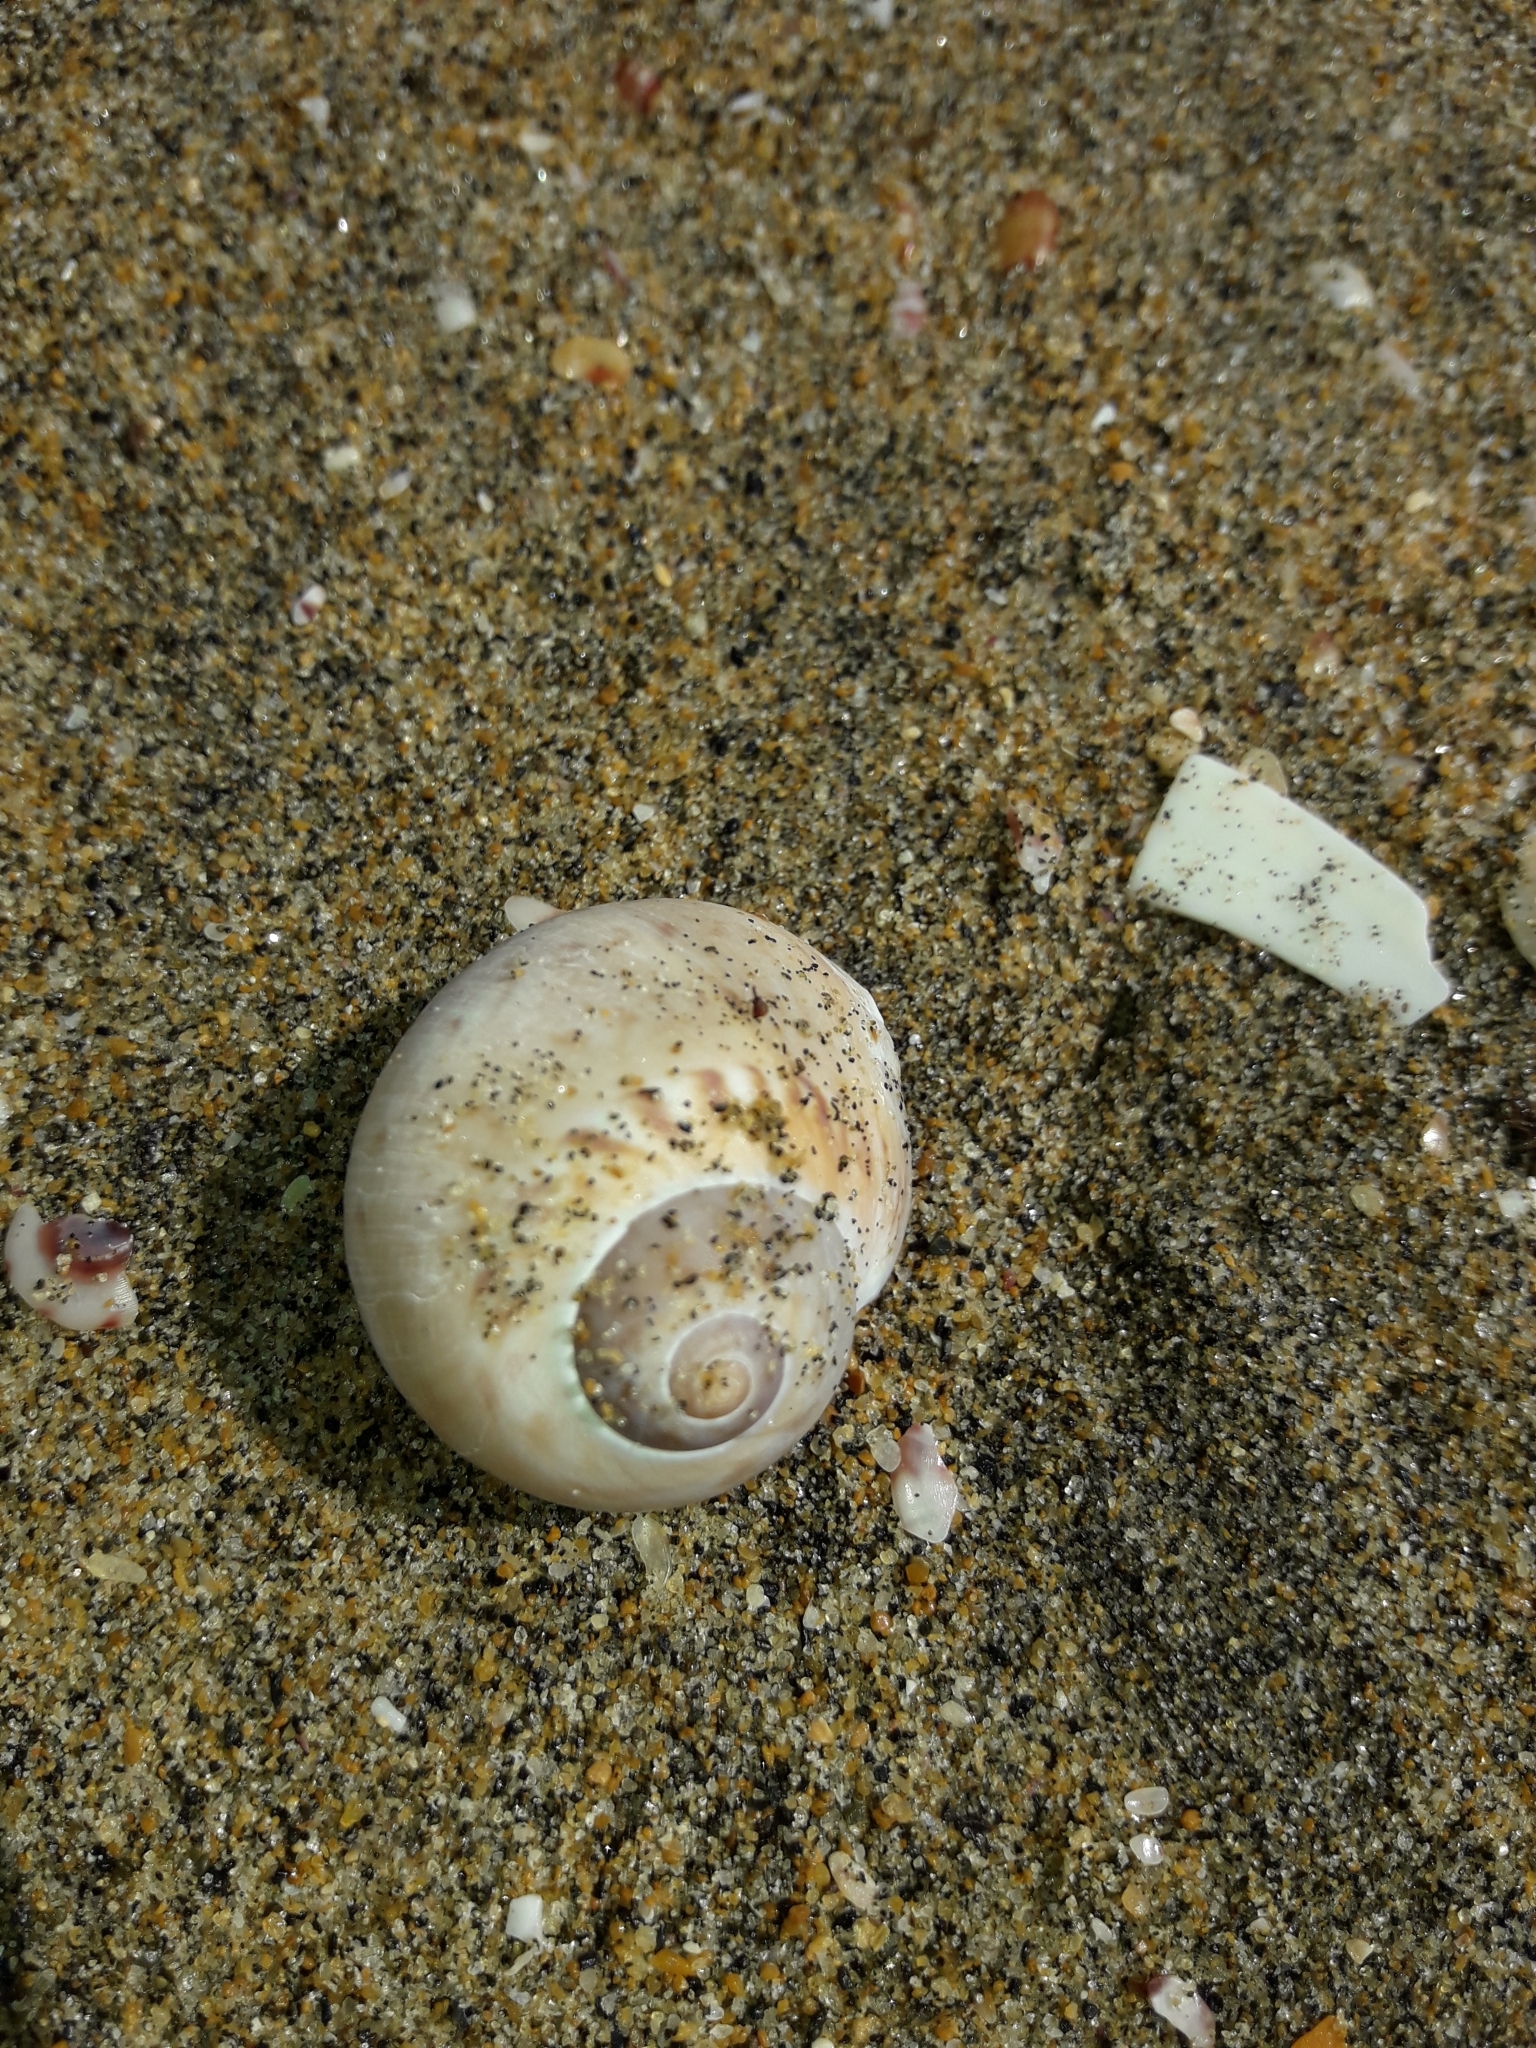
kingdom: Animalia
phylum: Mollusca
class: Gastropoda
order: Littorinimorpha
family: Naticidae
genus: Tanea
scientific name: Tanea zelandica
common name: New zealand moonsnail
